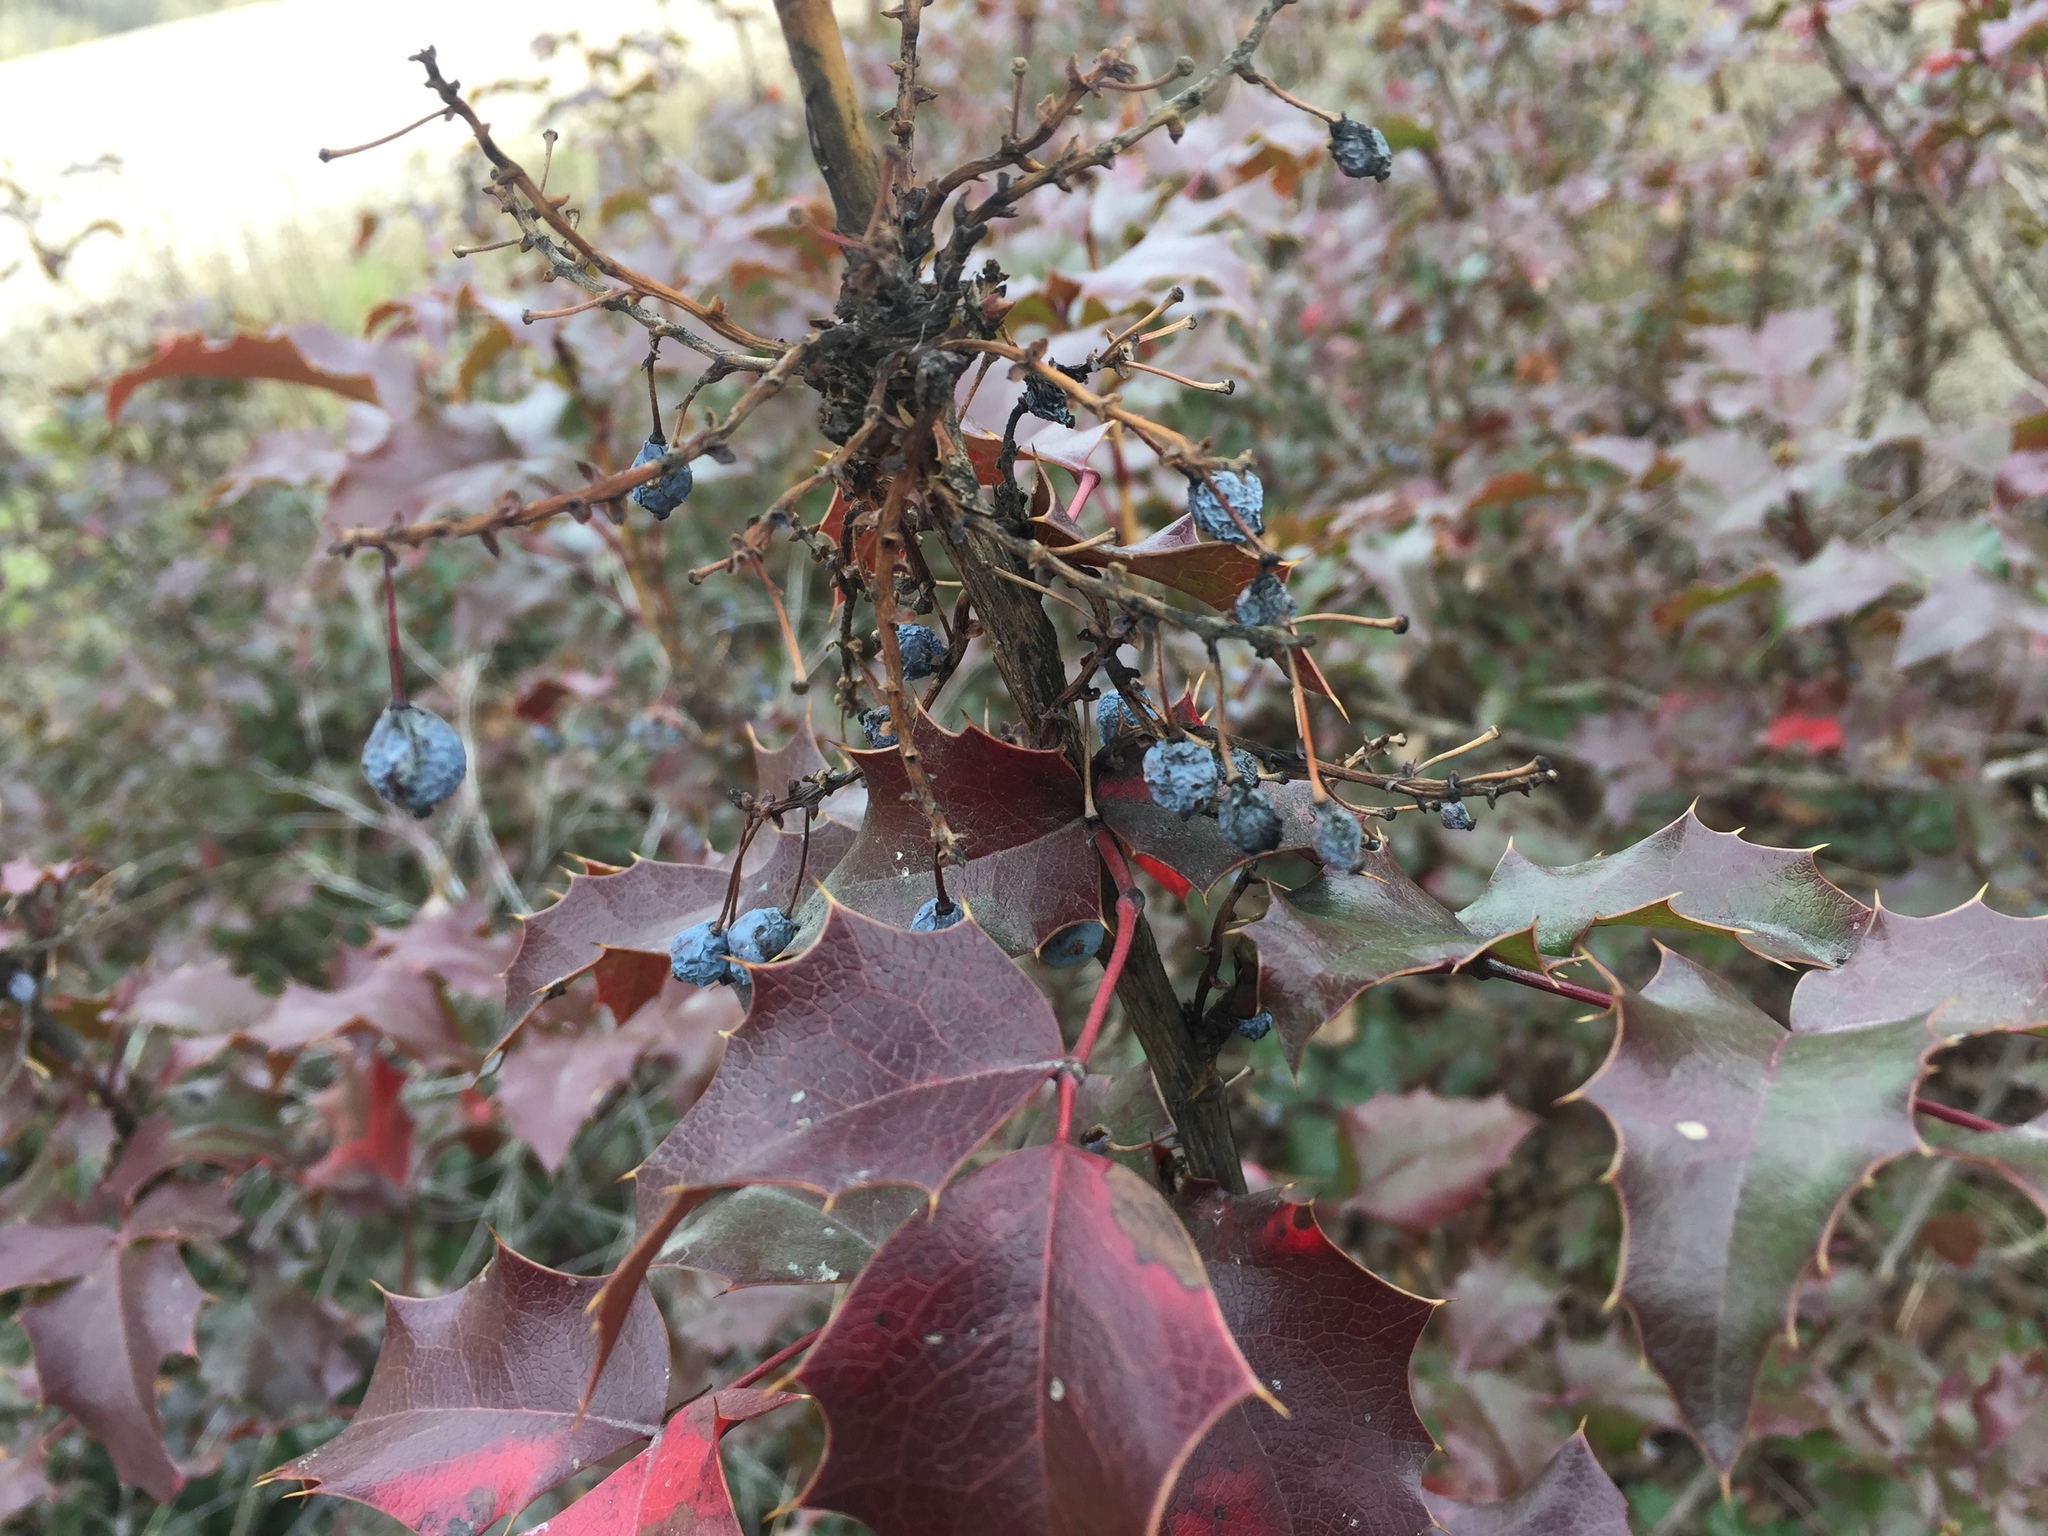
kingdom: Plantae
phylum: Tracheophyta
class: Magnoliopsida
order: Ranunculales
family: Berberidaceae
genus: Mahonia
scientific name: Mahonia aquifolium
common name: Oregon-grape
